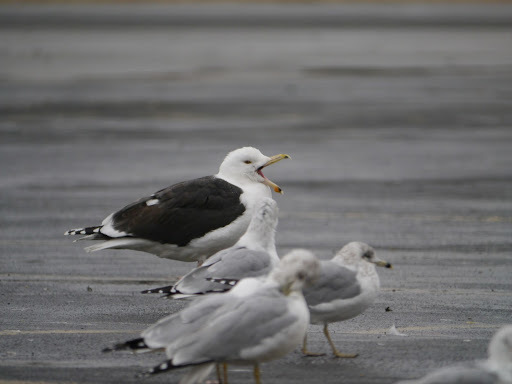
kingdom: Animalia
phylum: Chordata
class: Aves
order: Charadriiformes
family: Laridae
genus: Larus
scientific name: Larus marinus
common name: Great black-backed gull
